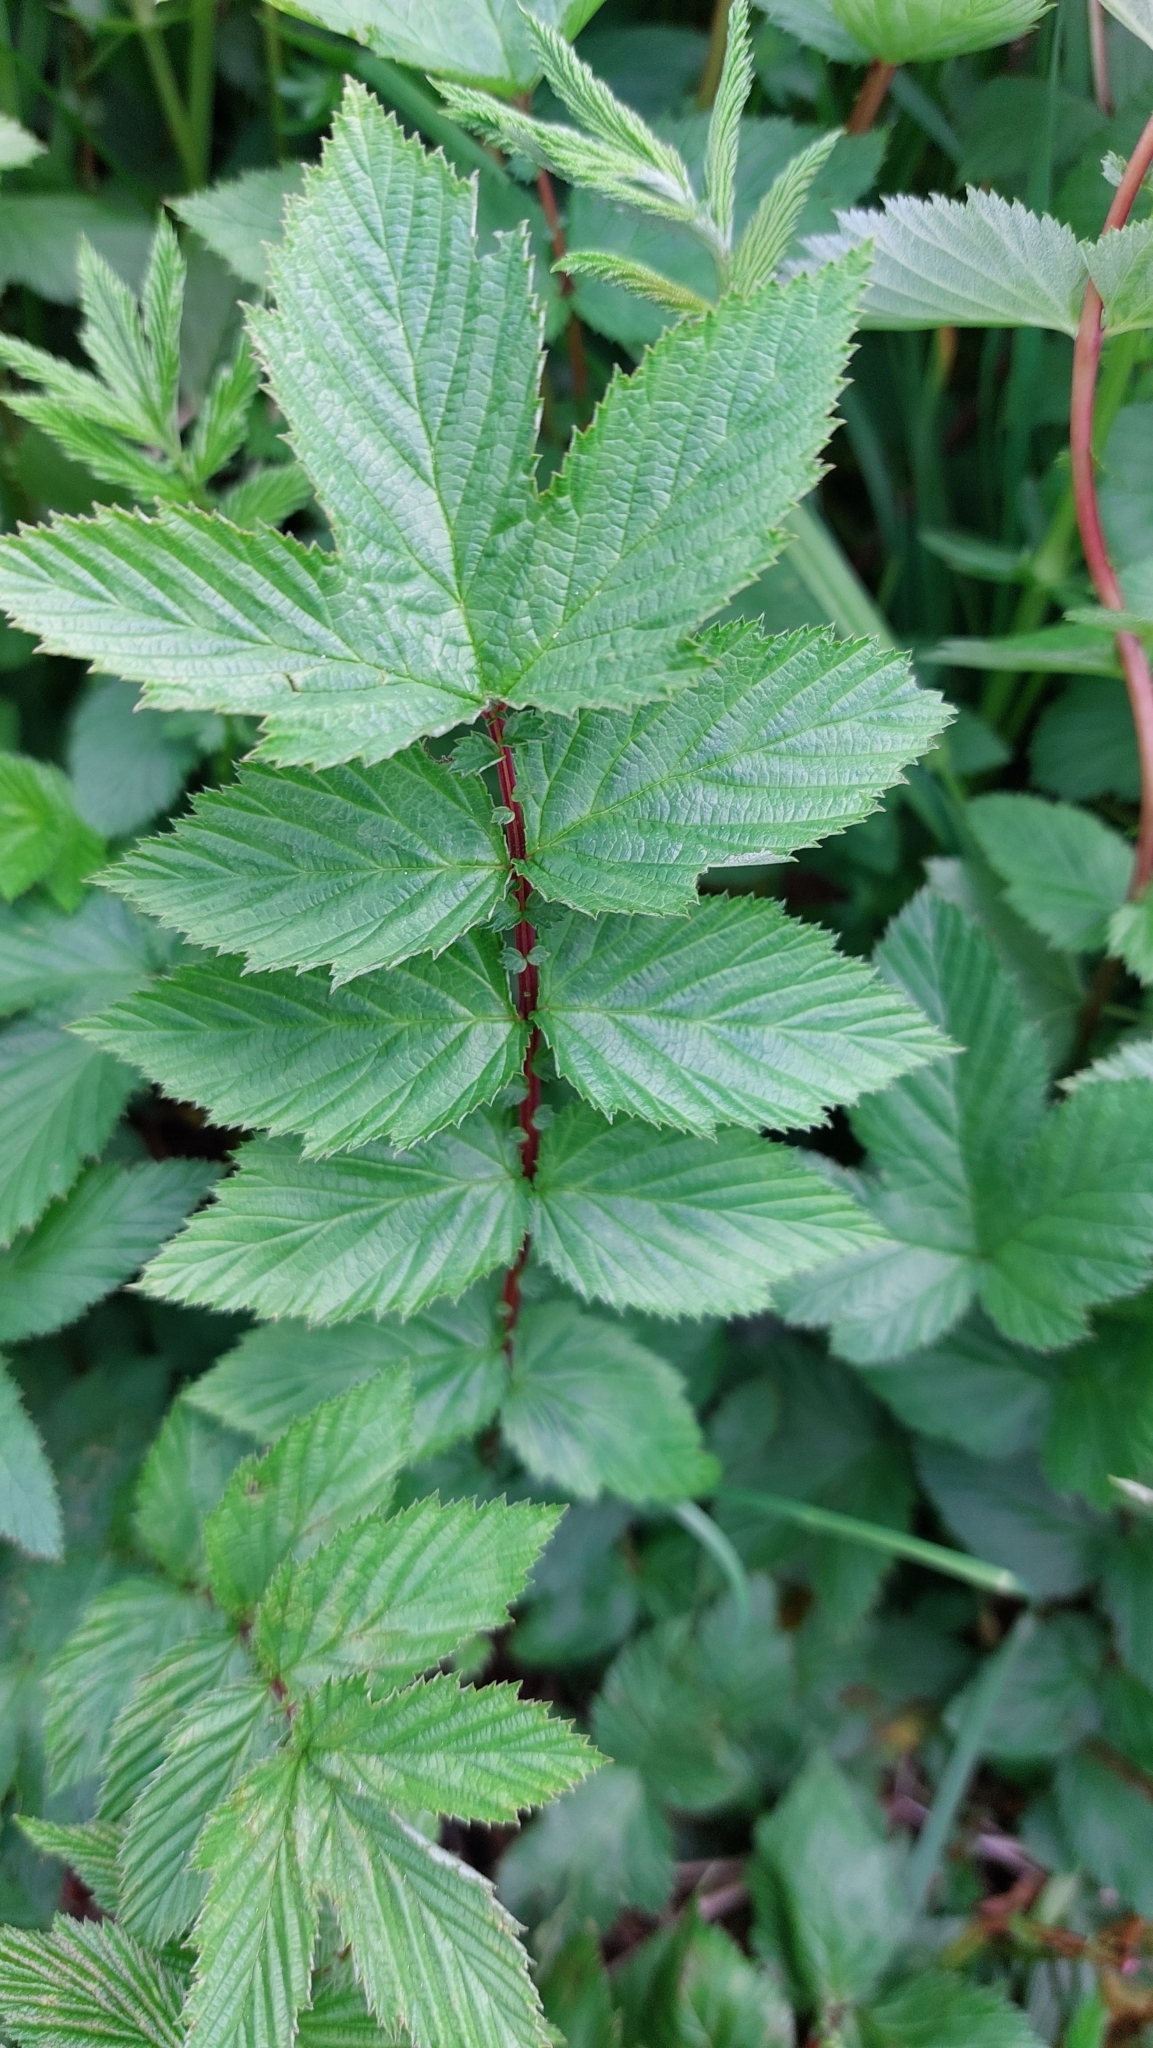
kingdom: Plantae
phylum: Tracheophyta
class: Magnoliopsida
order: Rosales
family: Rosaceae
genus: Filipendula
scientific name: Filipendula ulmaria
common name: Meadowsweet
